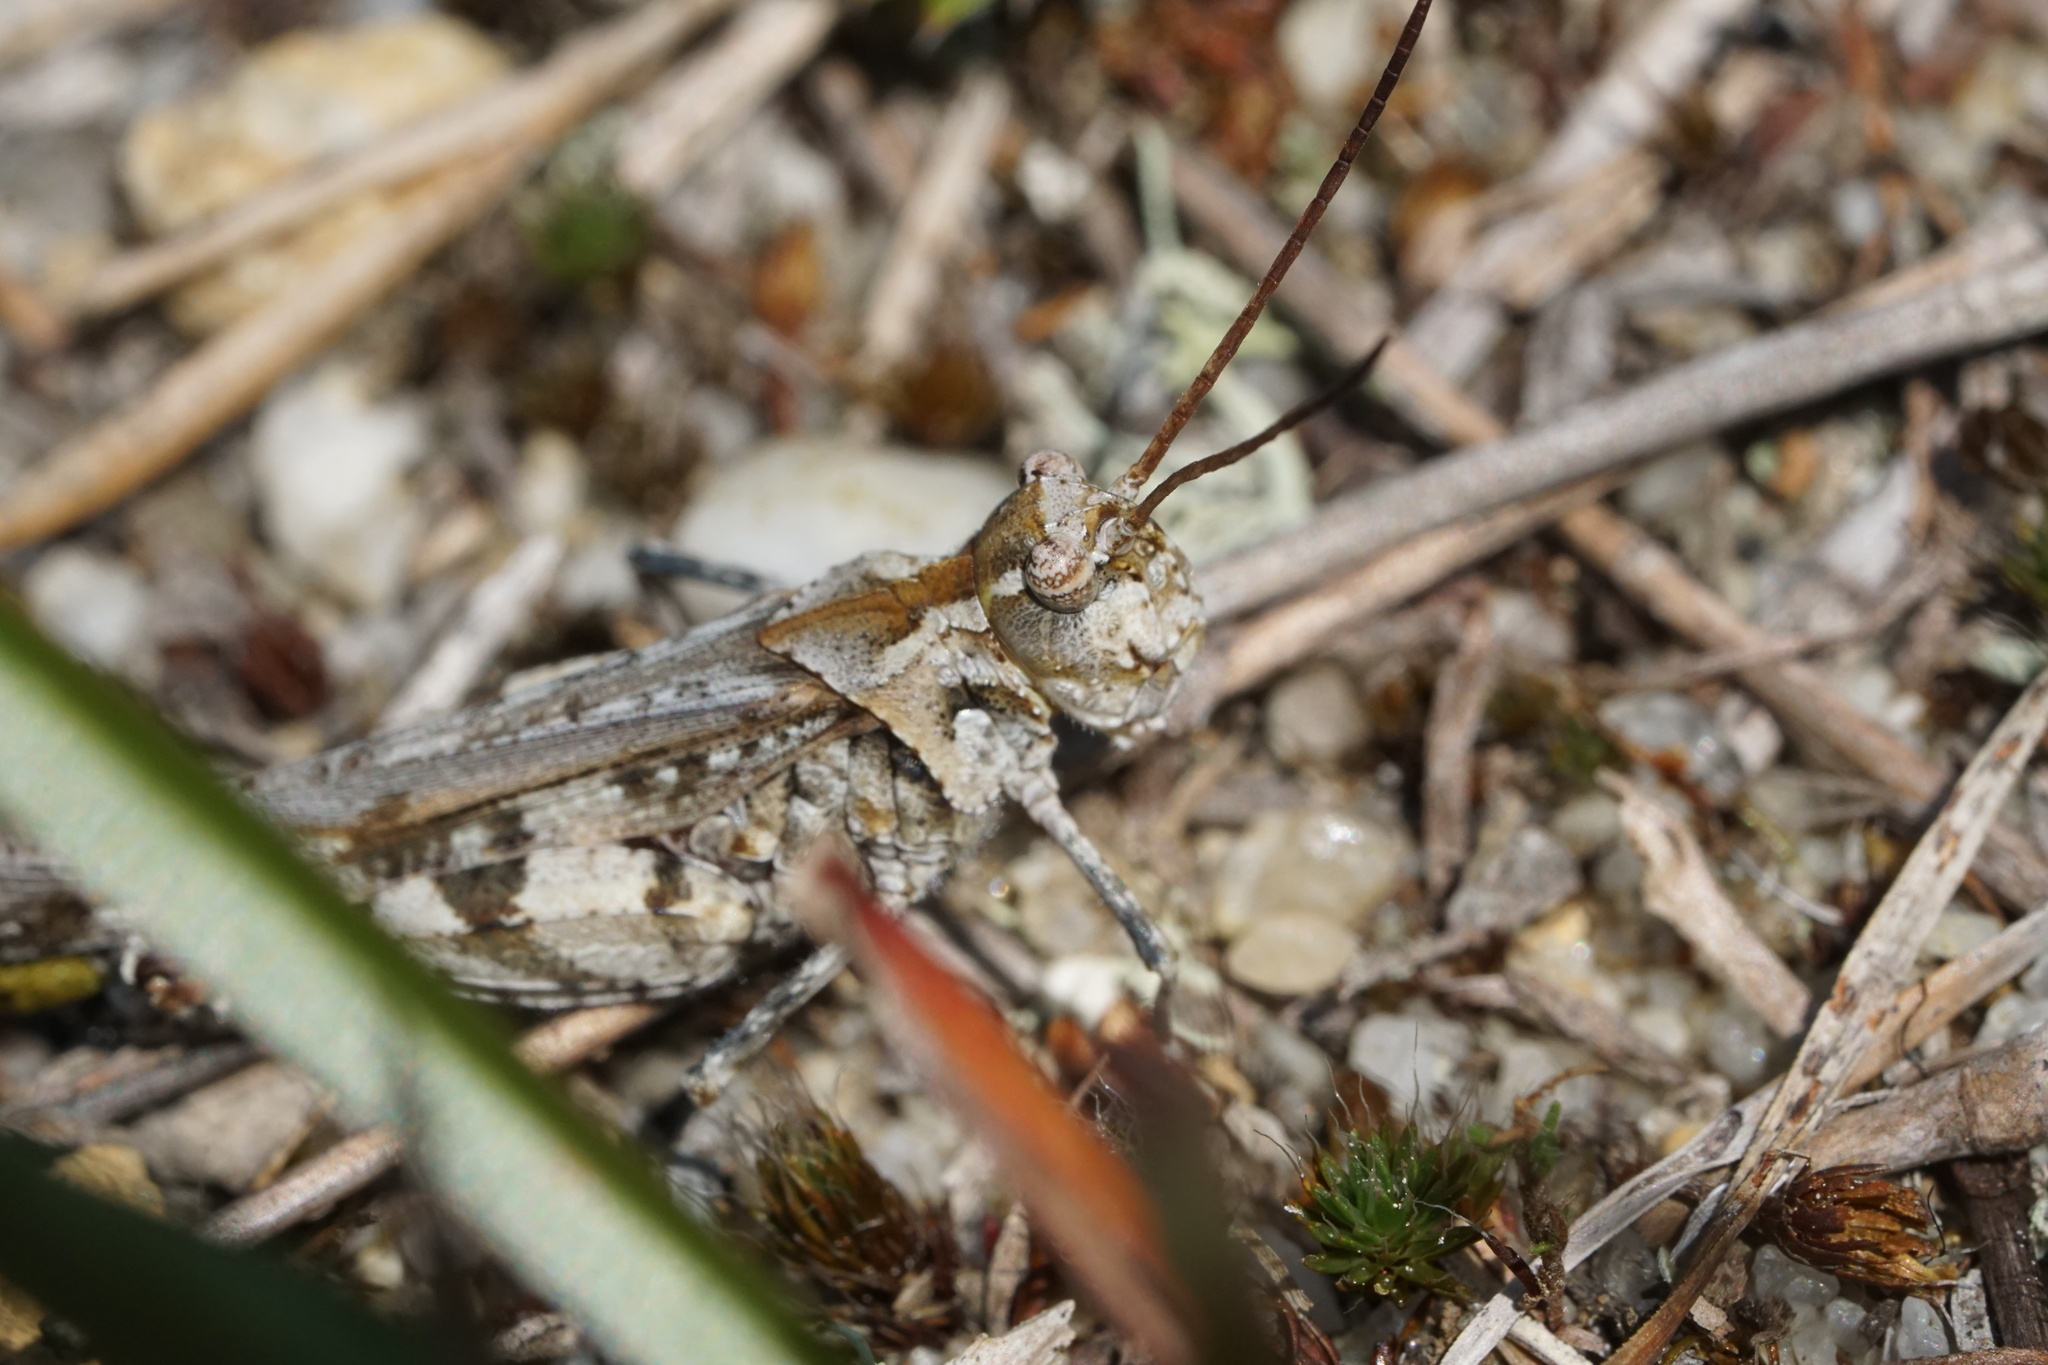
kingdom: Animalia
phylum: Arthropoda
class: Insecta
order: Orthoptera
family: Acrididae
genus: Psinidia
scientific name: Psinidia fenestralis
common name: Long-horned locust
